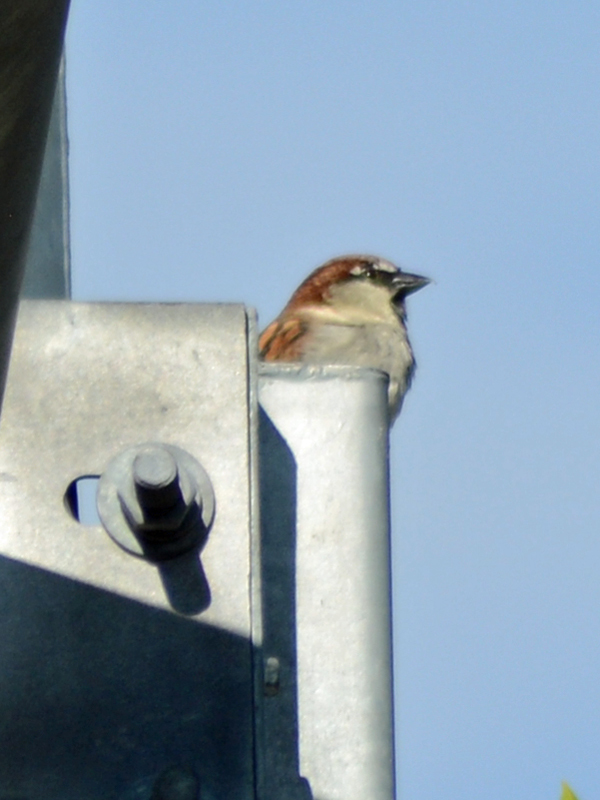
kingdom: Animalia
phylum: Chordata
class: Aves
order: Passeriformes
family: Passeridae
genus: Passer
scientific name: Passer domesticus
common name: House sparrow
